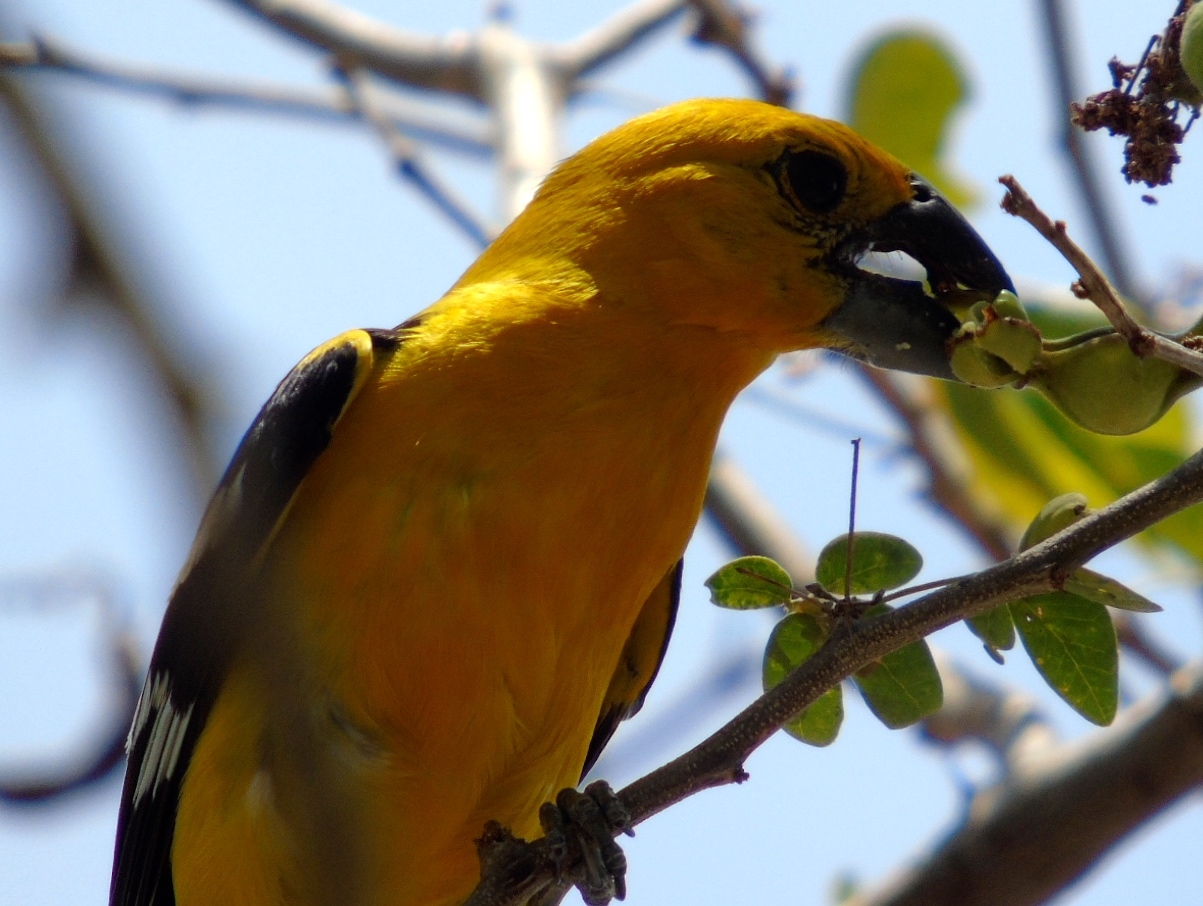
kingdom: Animalia
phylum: Chordata
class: Aves
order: Passeriformes
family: Cardinalidae
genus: Pheucticus
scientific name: Pheucticus chrysopeplus
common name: Yellow grosbeak
